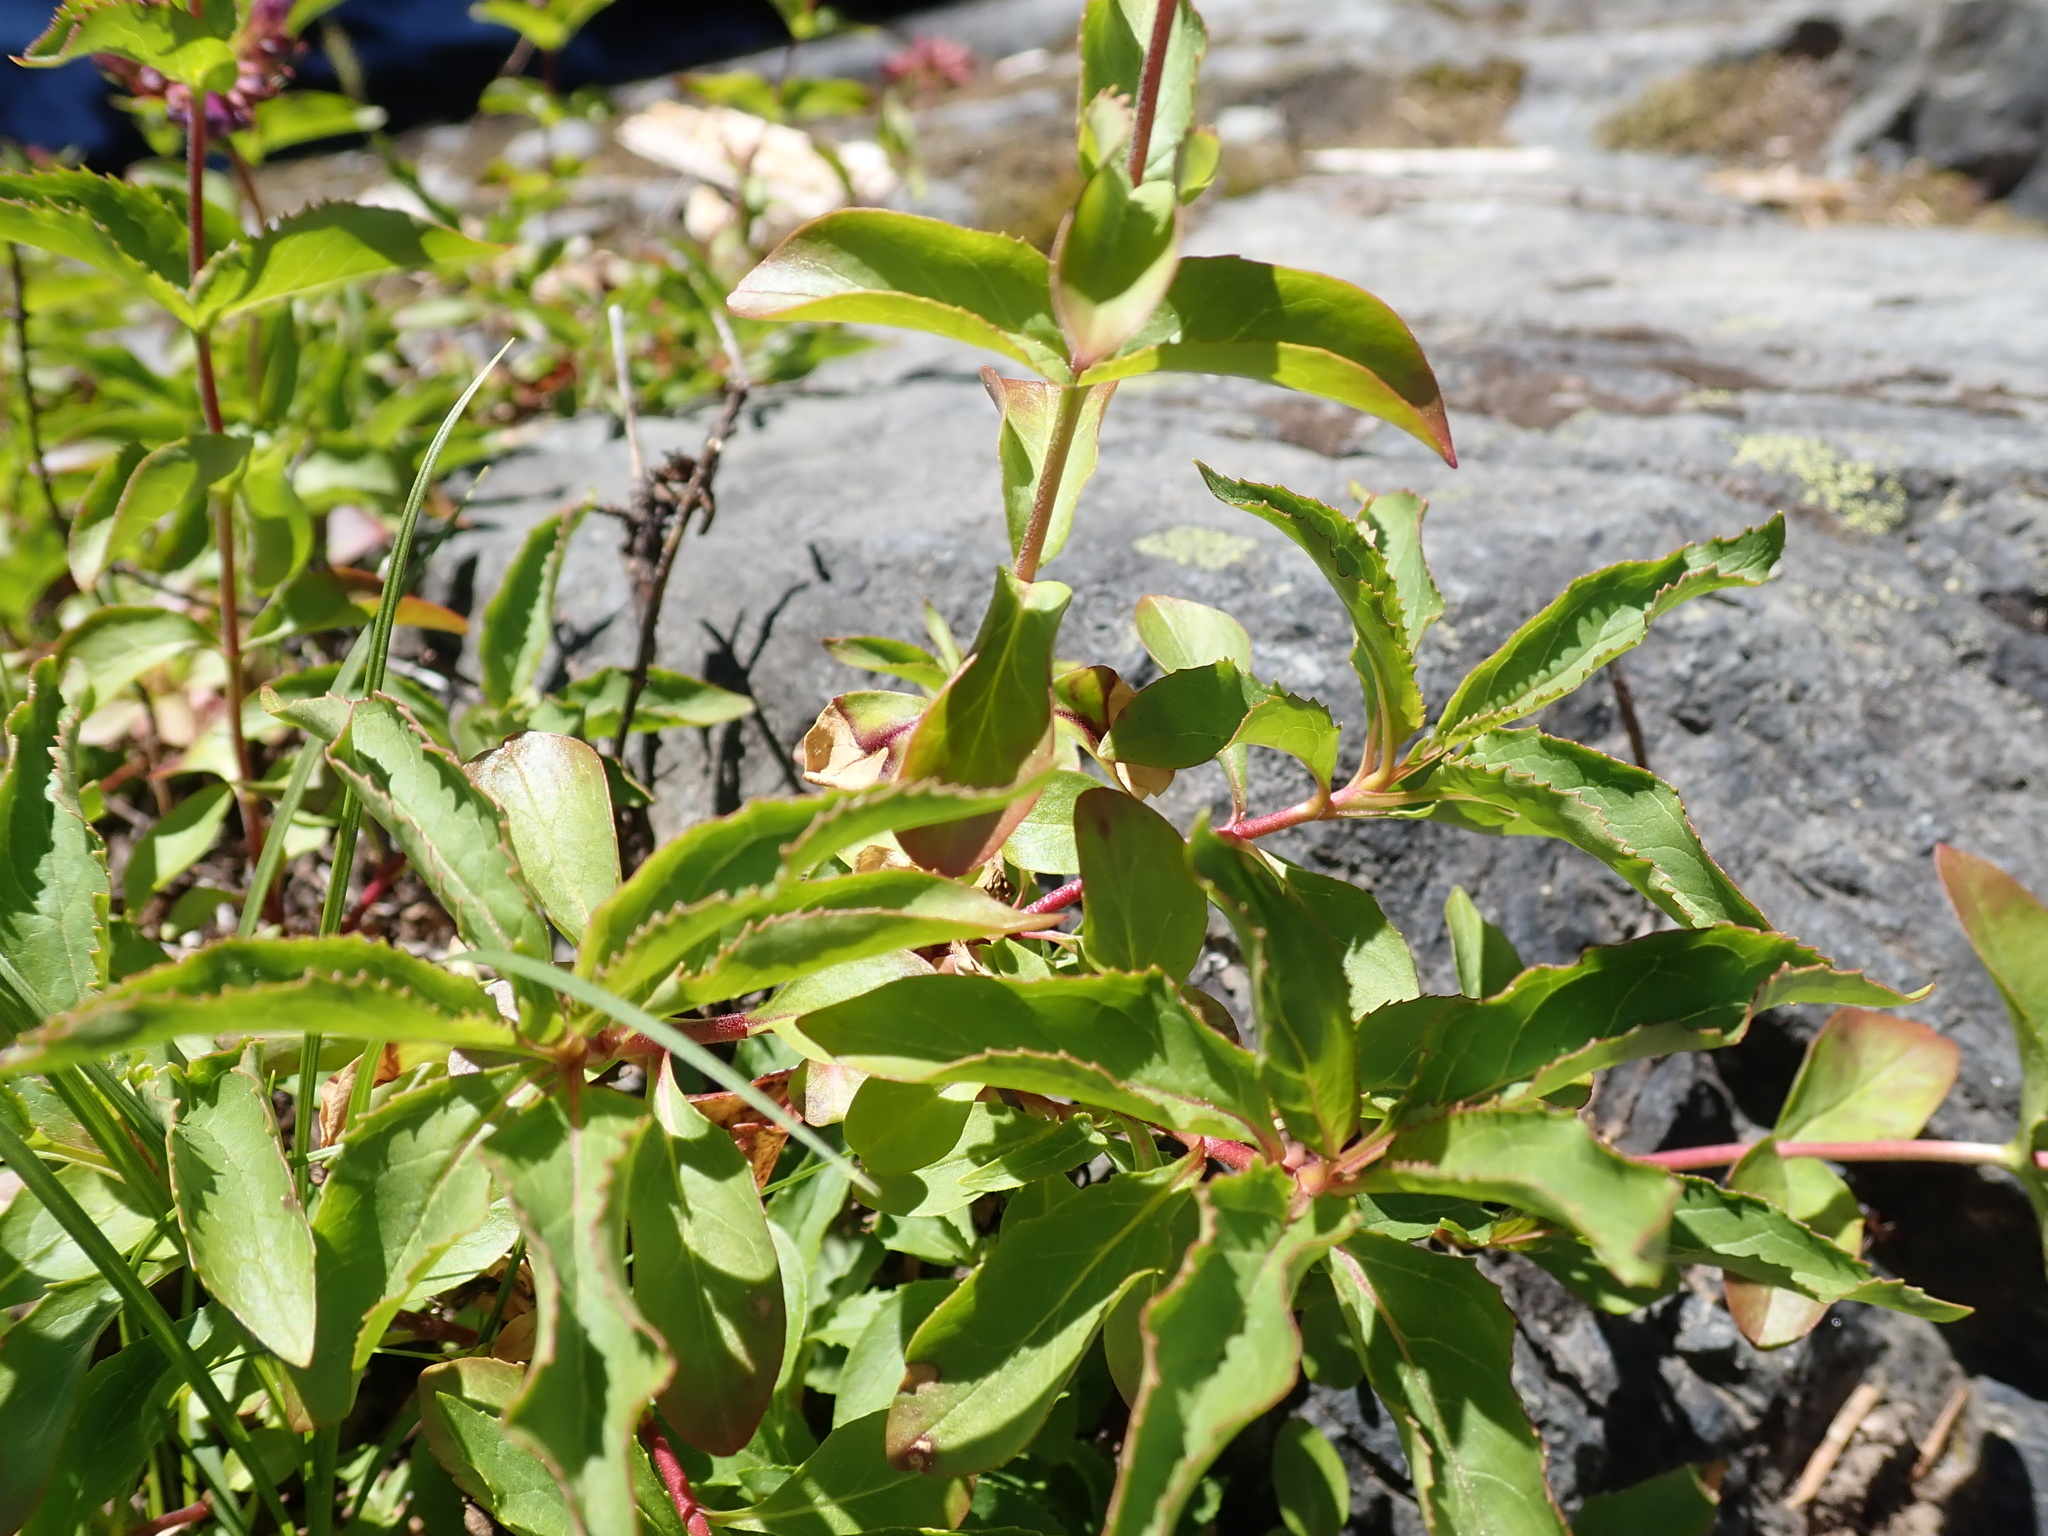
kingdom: Plantae
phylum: Tracheophyta
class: Magnoliopsida
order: Lamiales
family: Plantaginaceae
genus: Penstemon
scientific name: Penstemon serrulatus
